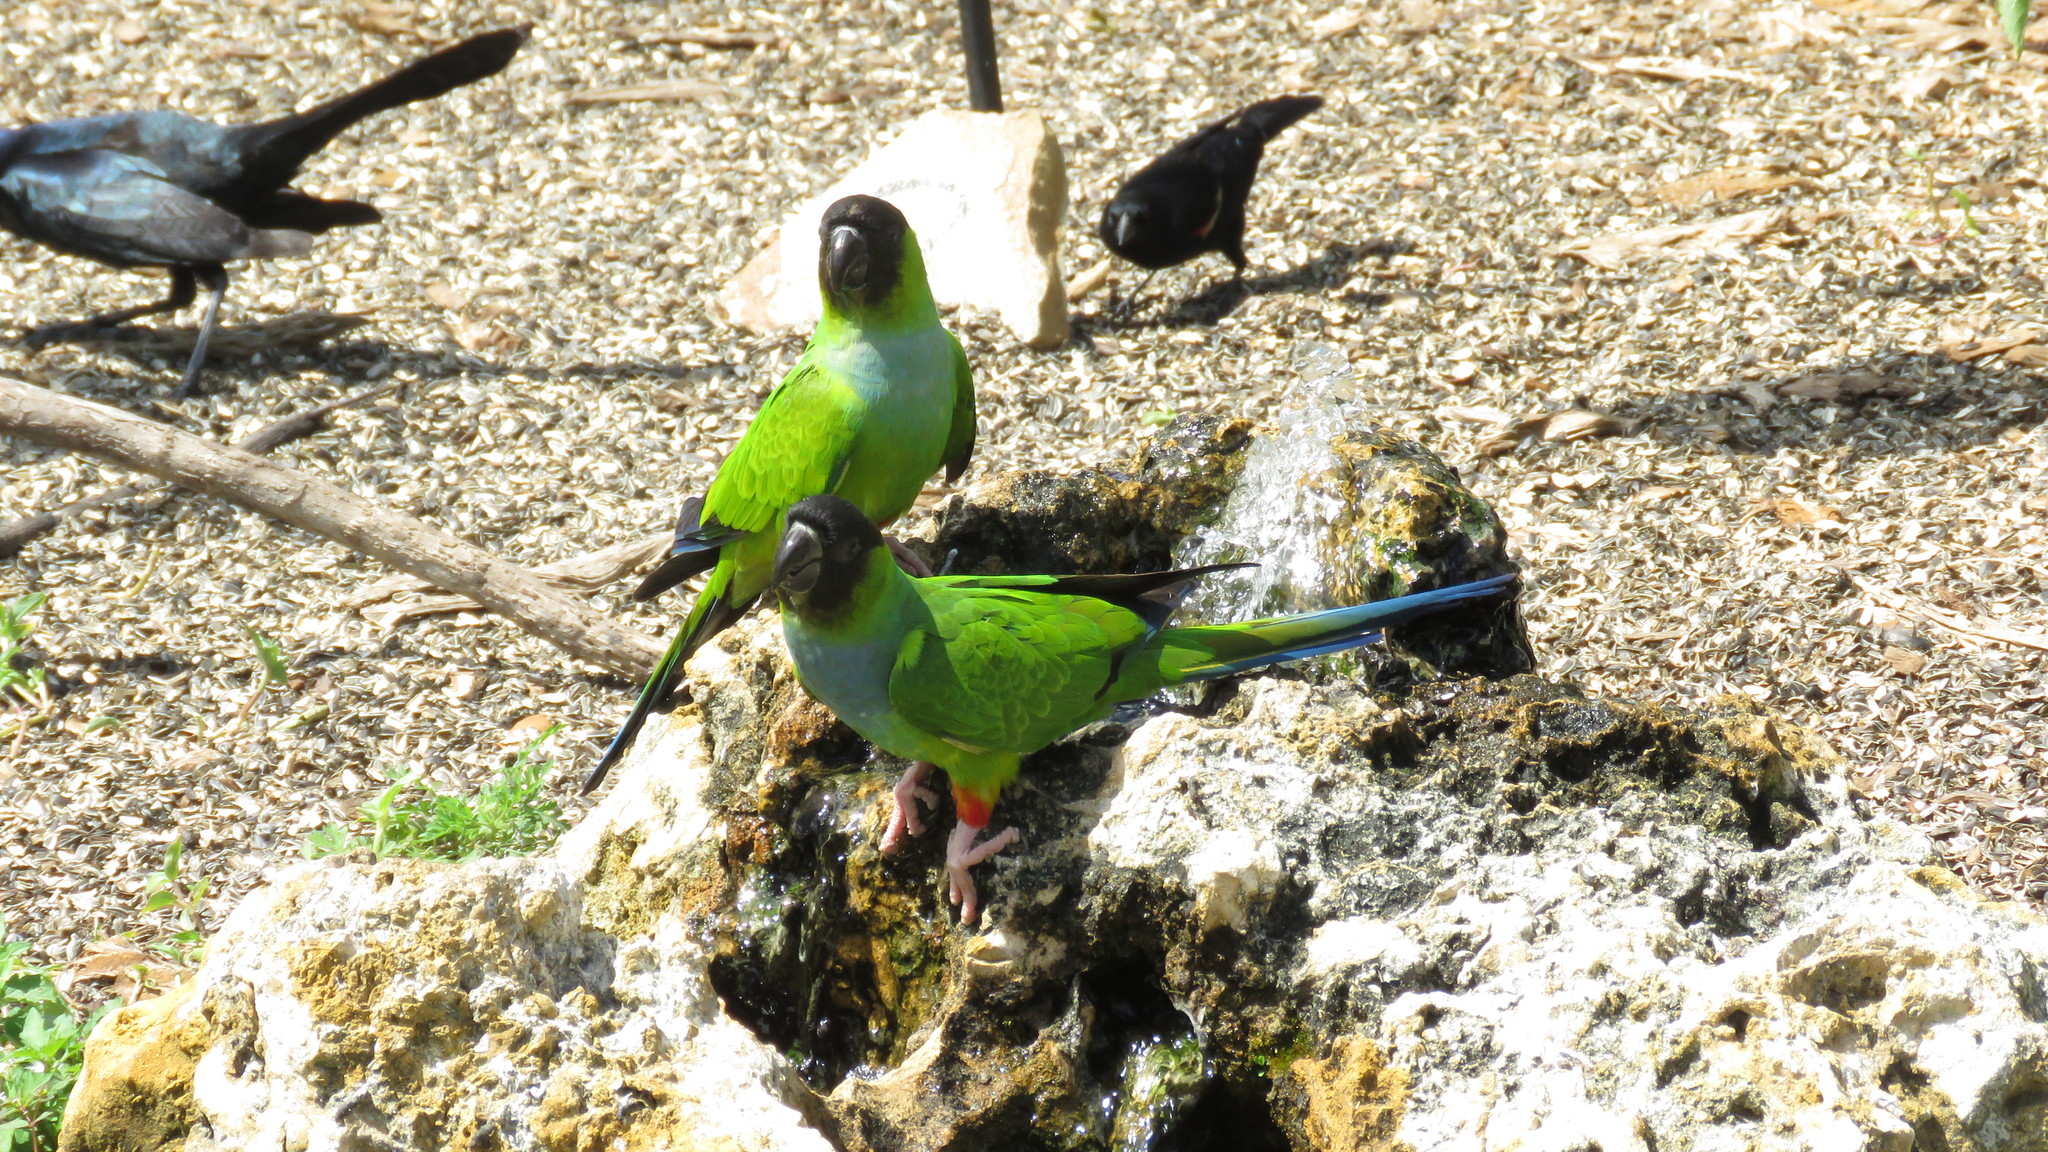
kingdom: Animalia
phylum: Chordata
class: Aves
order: Psittaciformes
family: Psittacidae
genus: Nandayus
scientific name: Nandayus nenday
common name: Nanday parakeet
